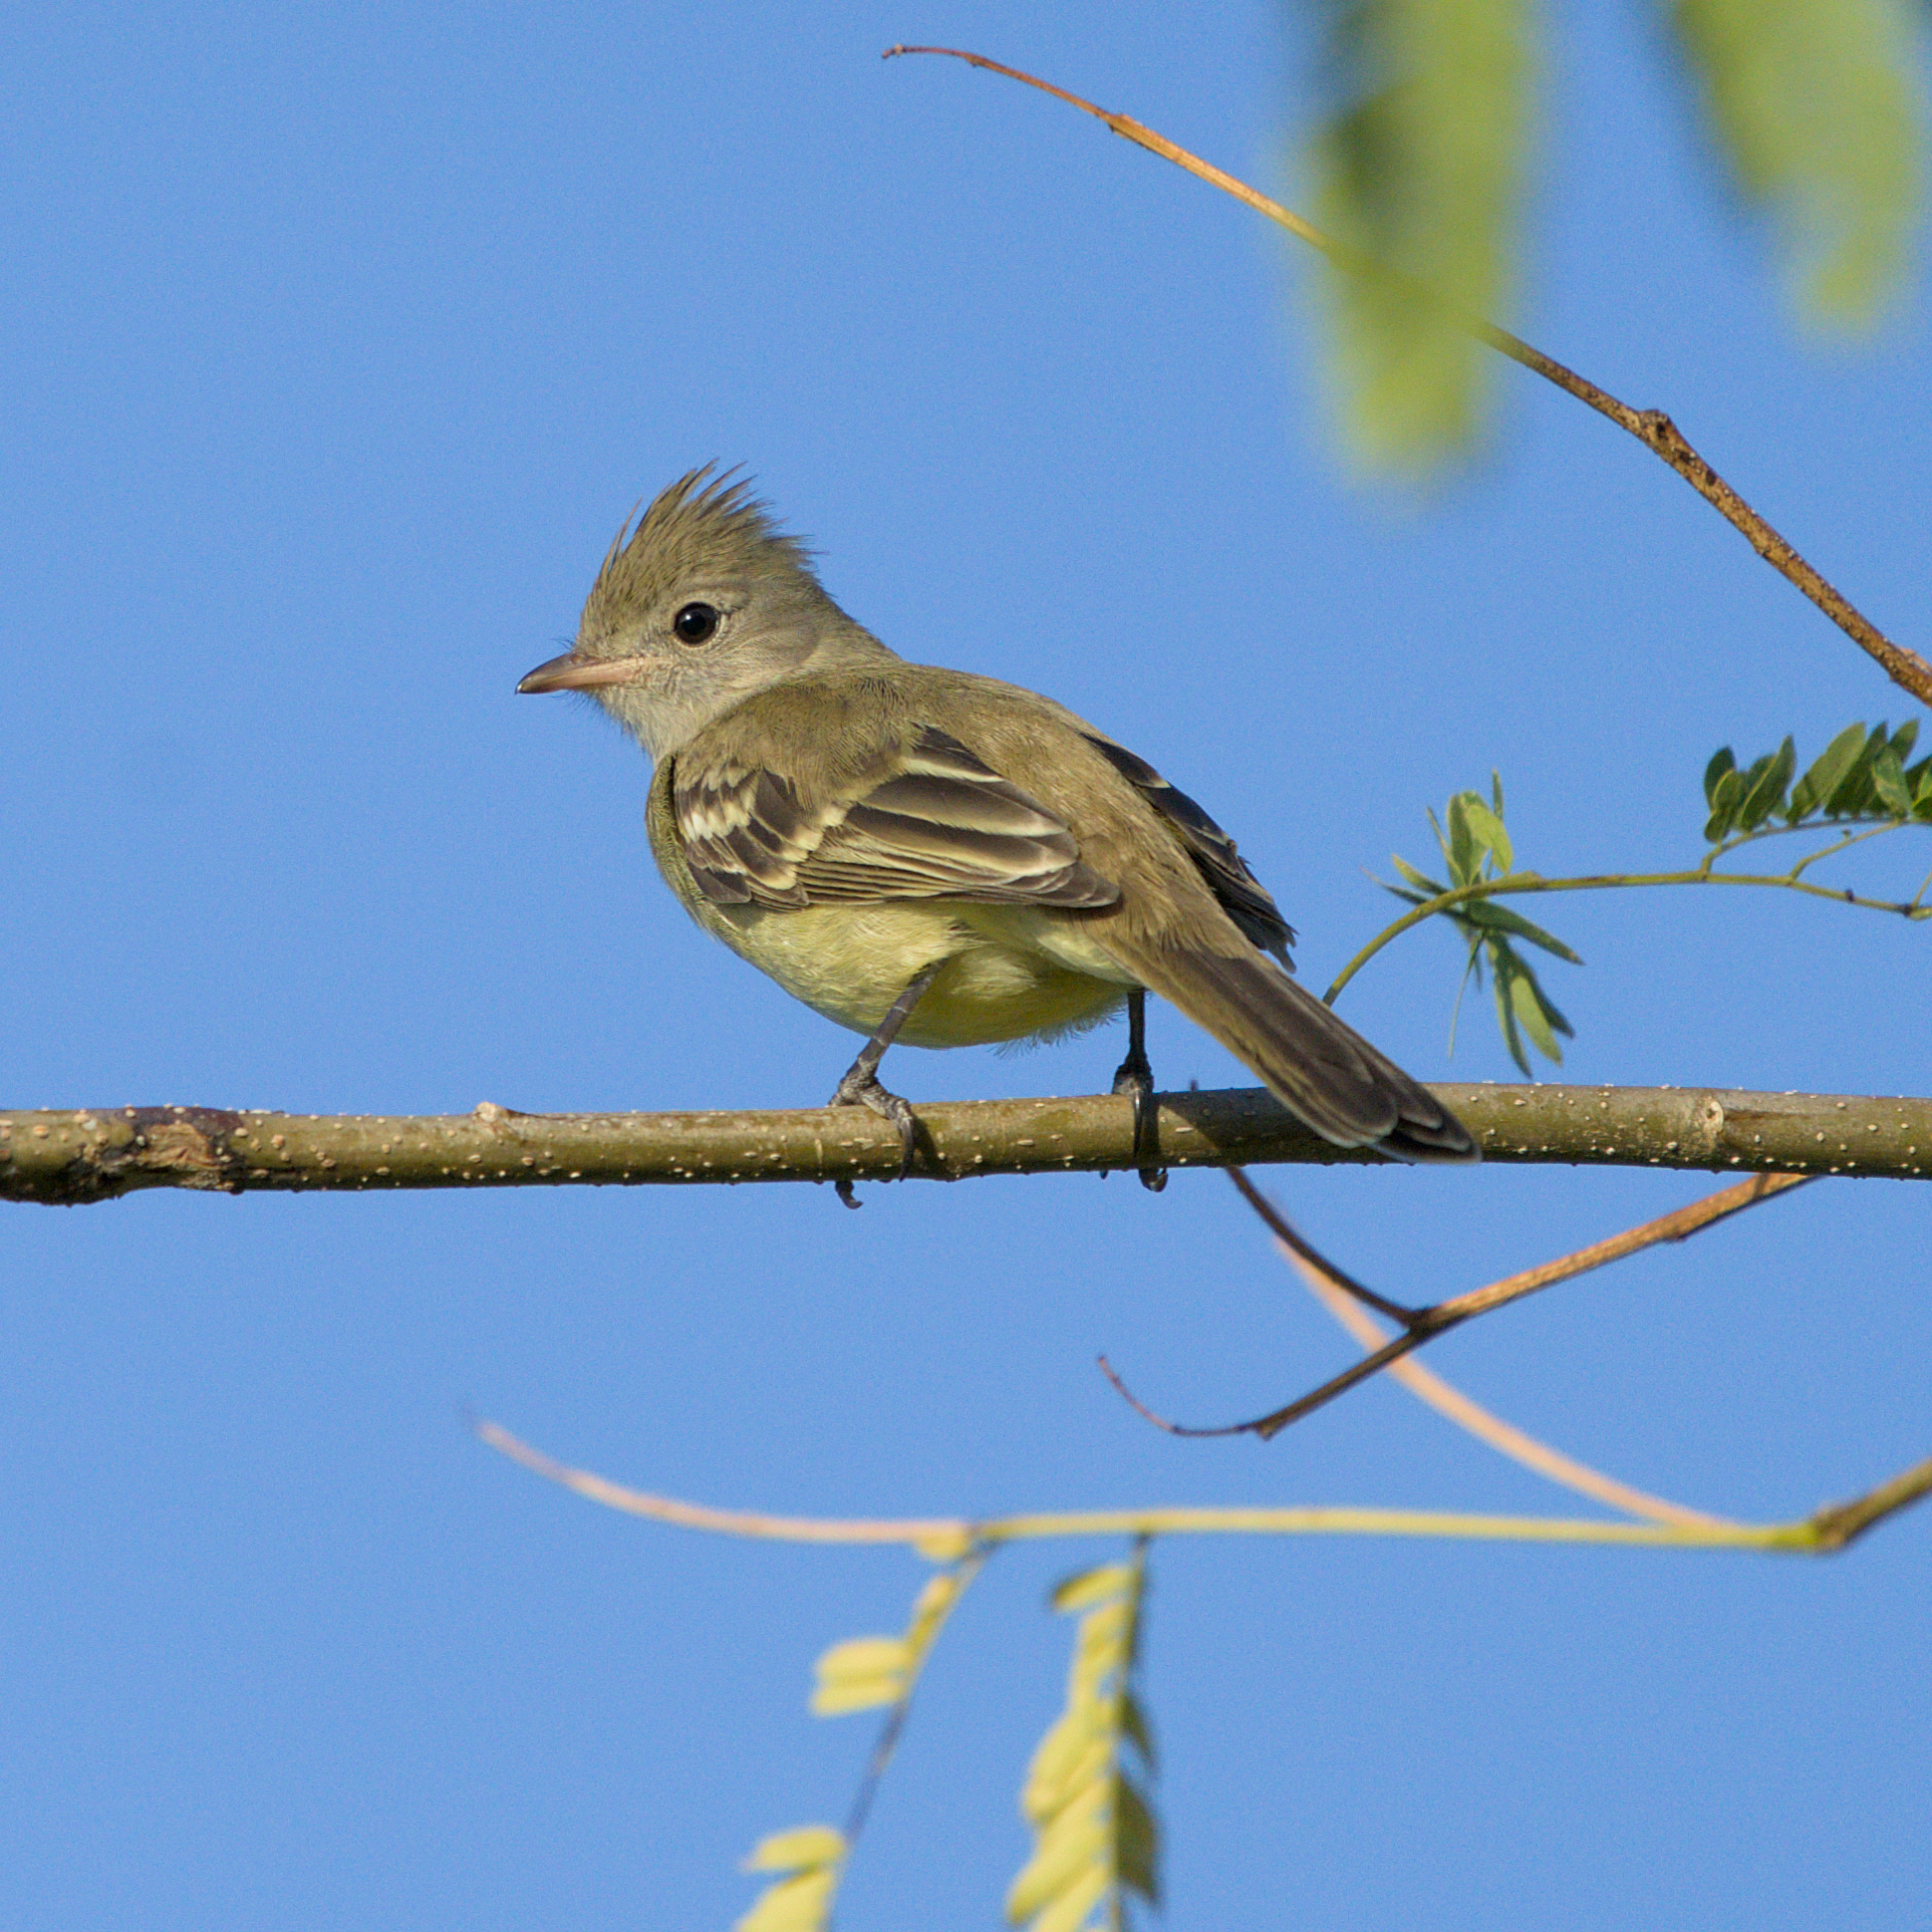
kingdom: Animalia
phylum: Chordata
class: Aves
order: Passeriformes
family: Tyrannidae
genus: Elaenia
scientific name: Elaenia flavogaster
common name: Yellow-bellied elaenia
